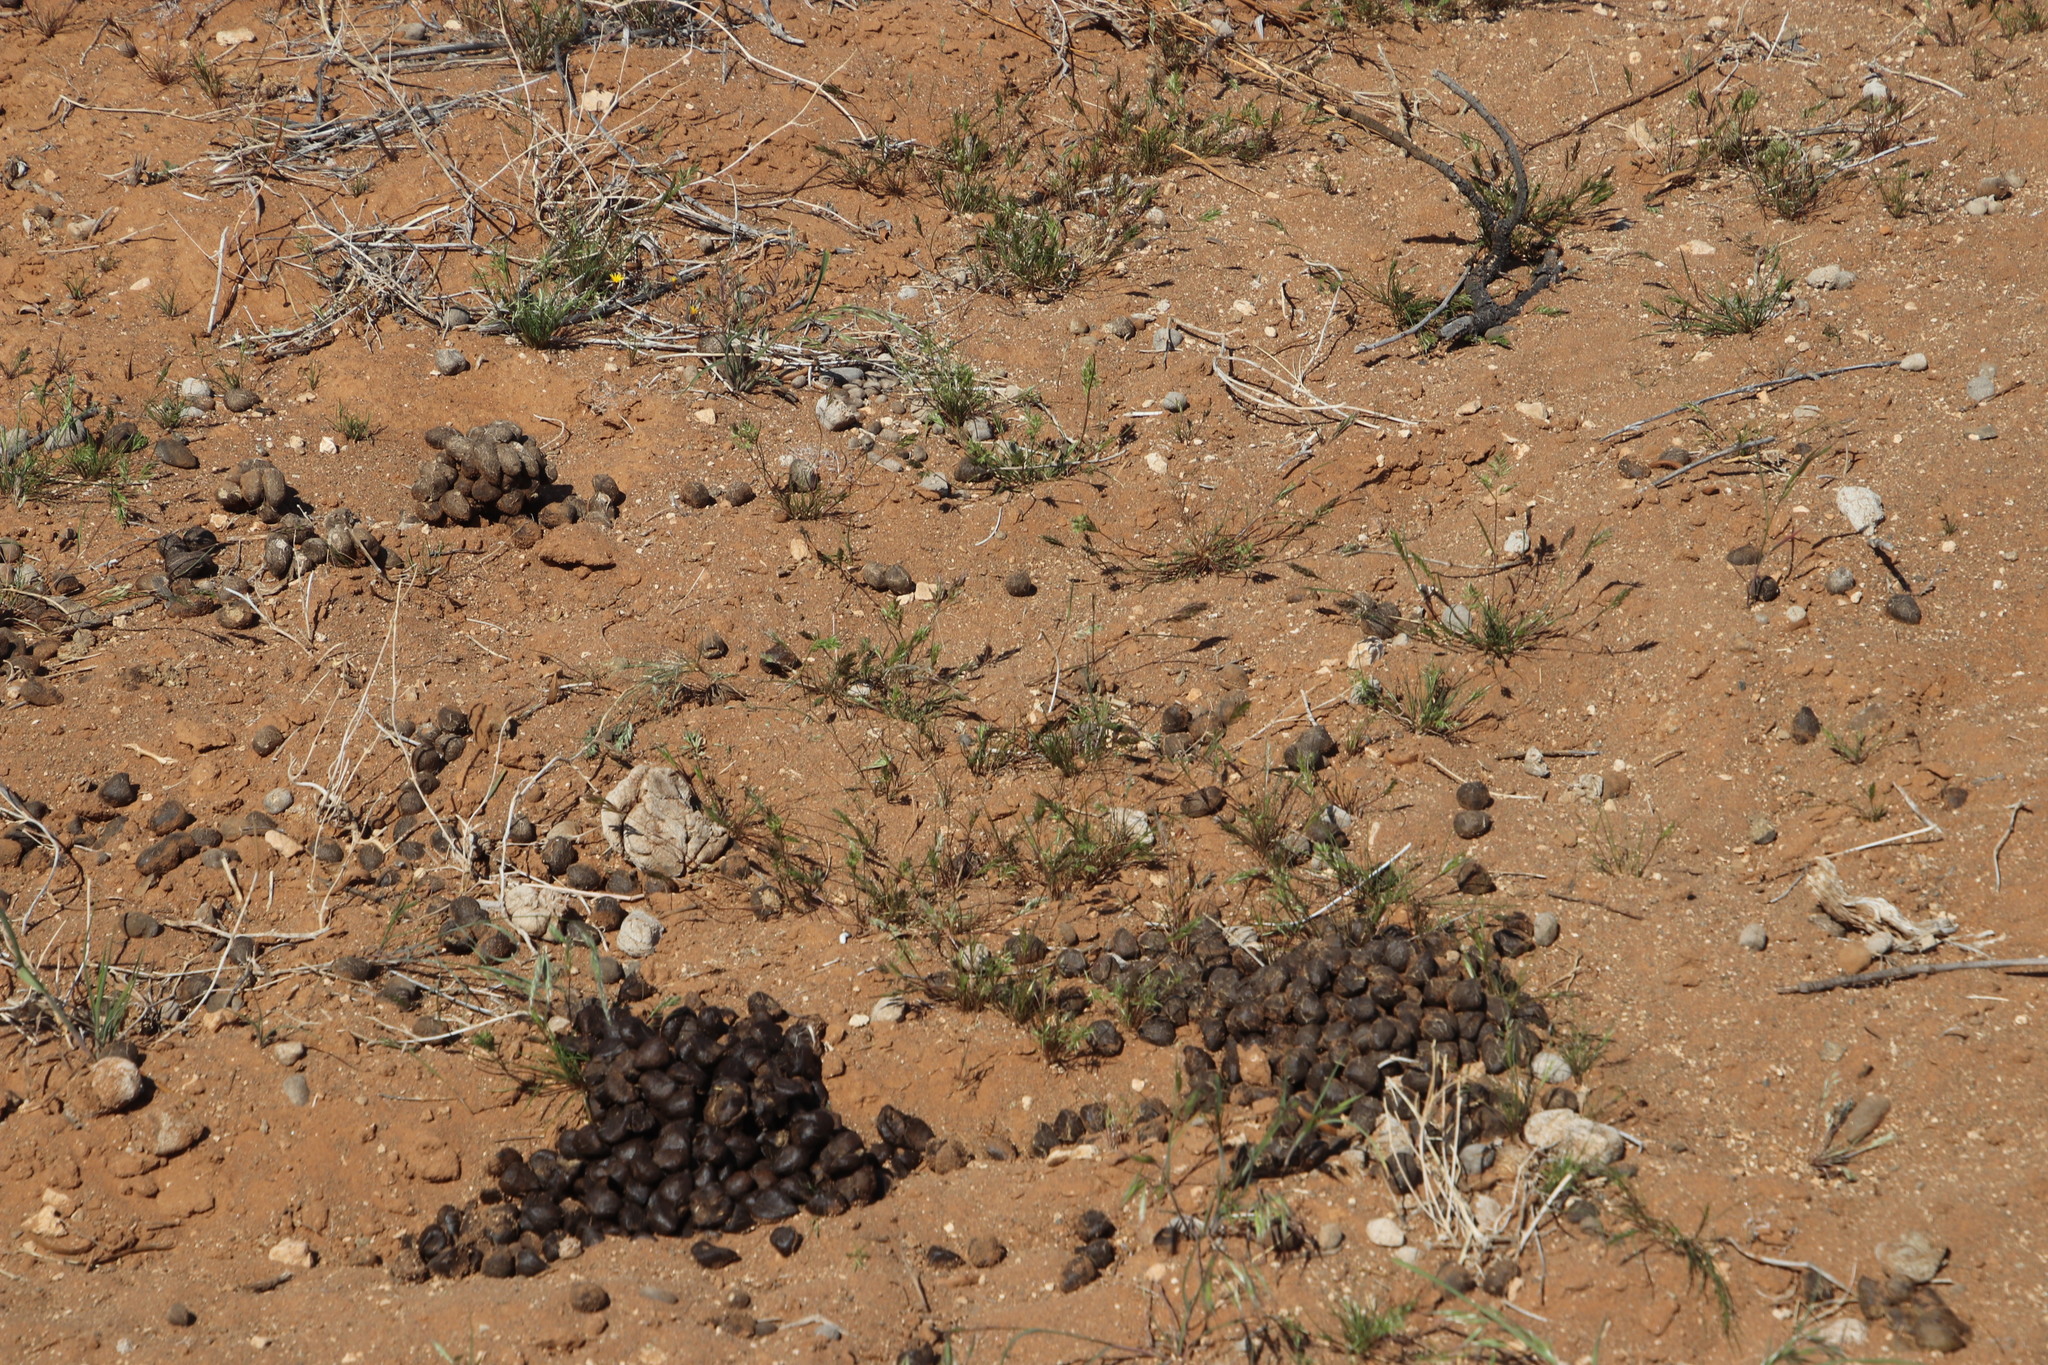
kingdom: Animalia
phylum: Chordata
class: Mammalia
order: Artiodactyla
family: Bovidae
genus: Oryx
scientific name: Oryx gazella
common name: Gemsbok
